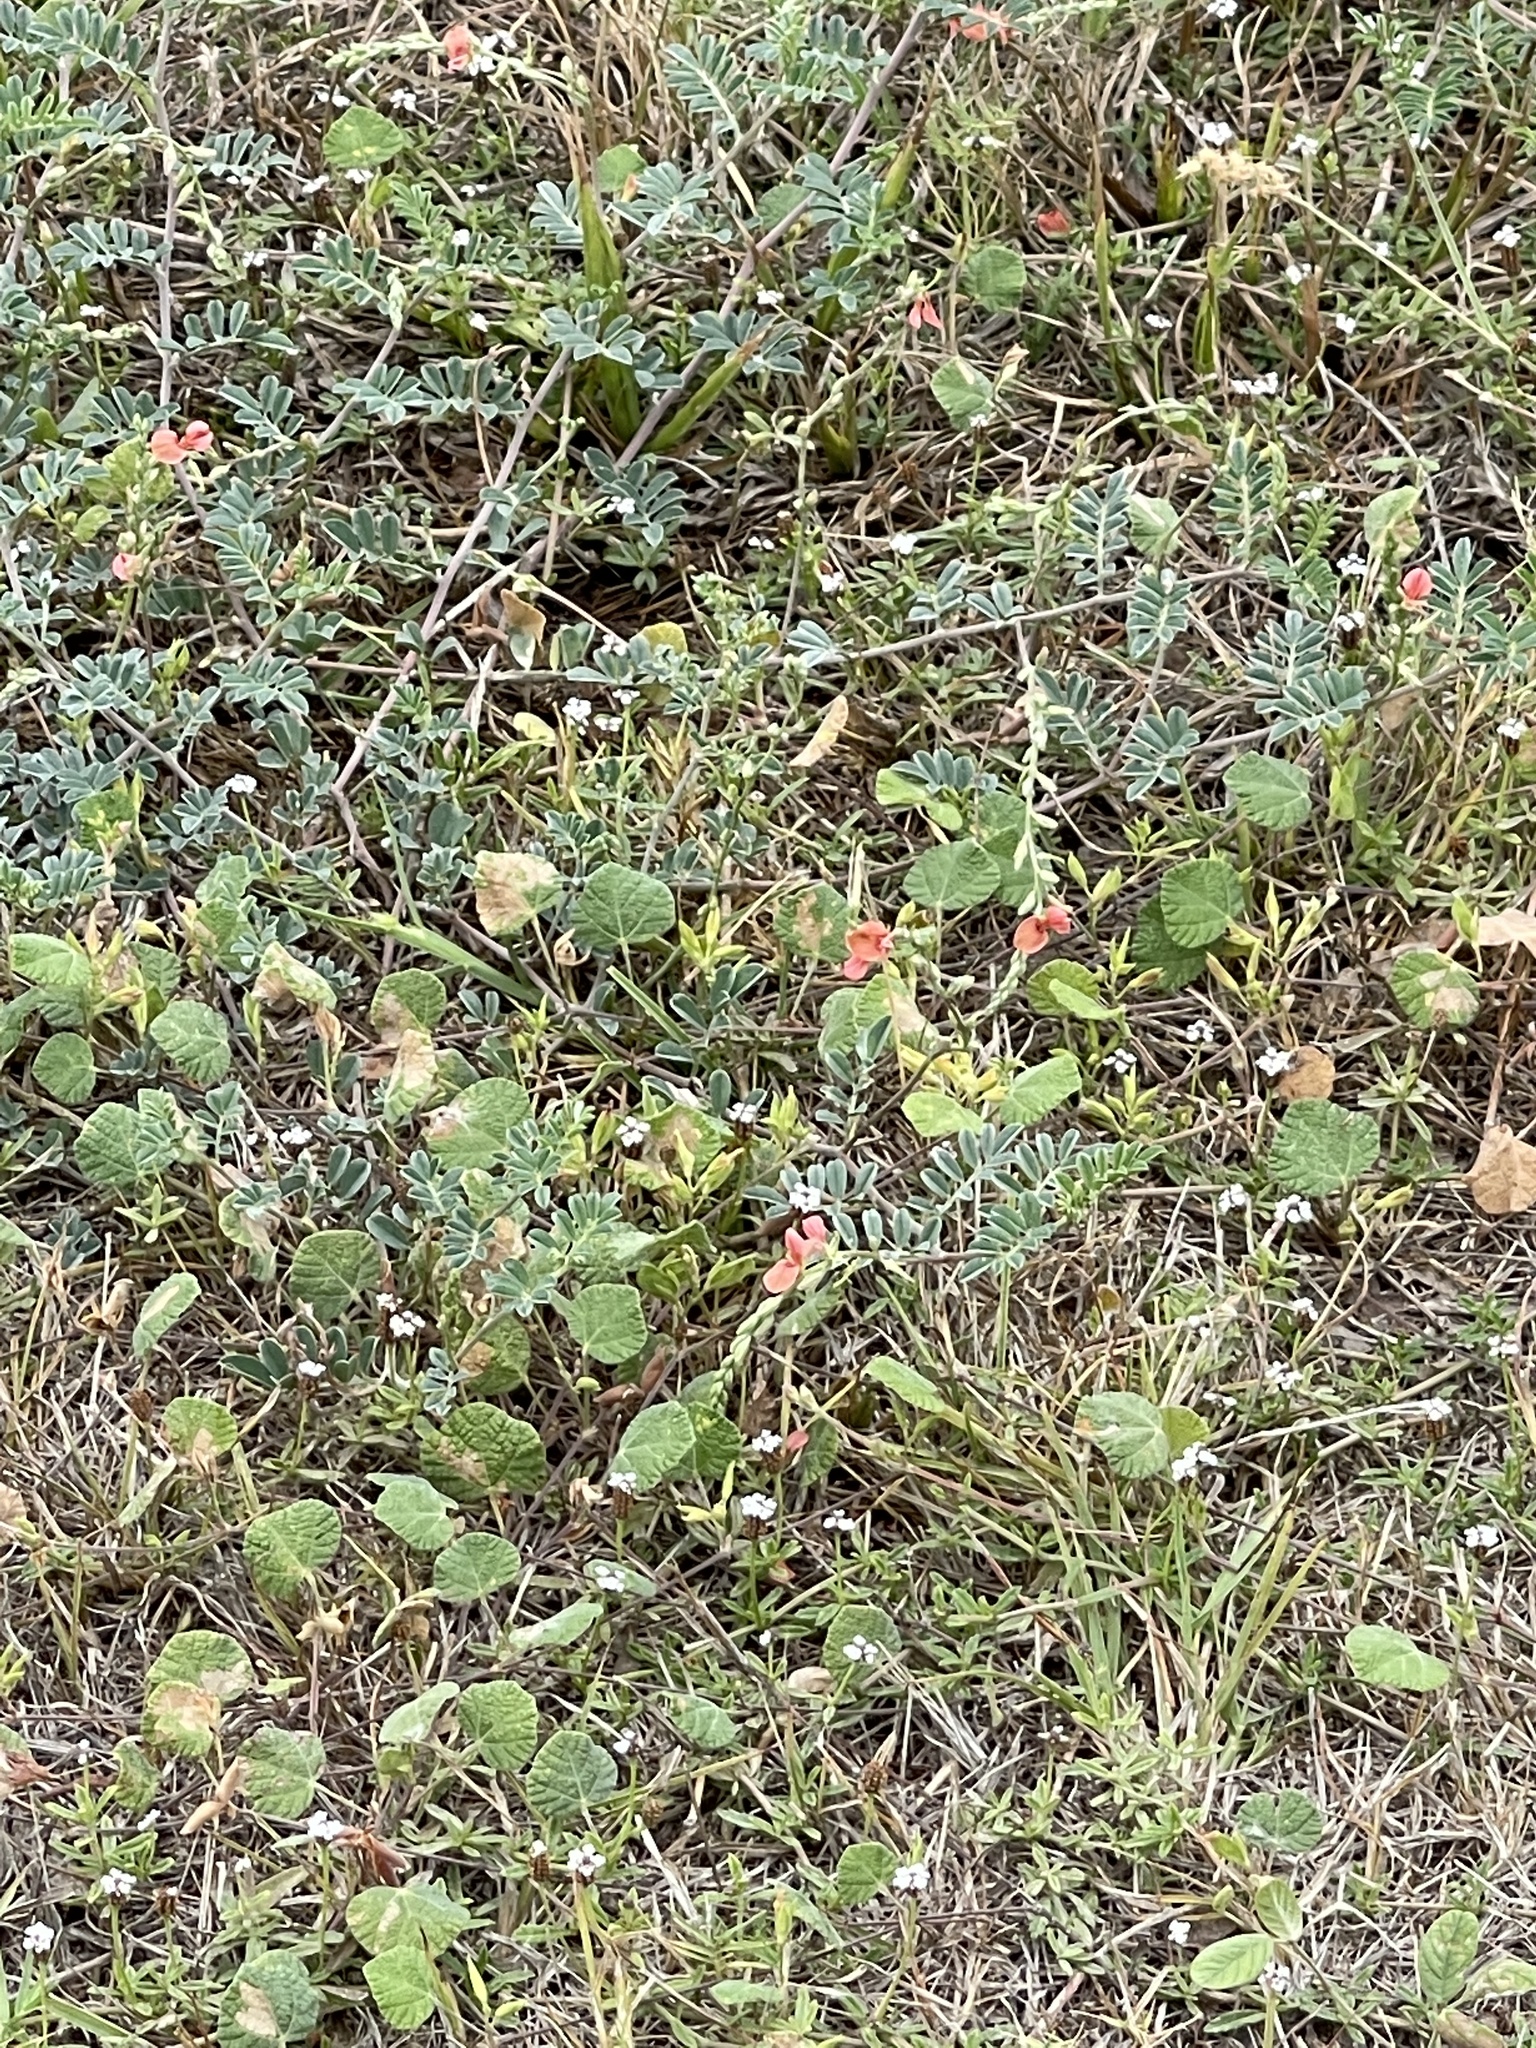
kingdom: Plantae
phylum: Tracheophyta
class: Magnoliopsida
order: Fabales
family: Fabaceae
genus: Indigofera
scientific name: Indigofera miniata
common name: Coast indigo
